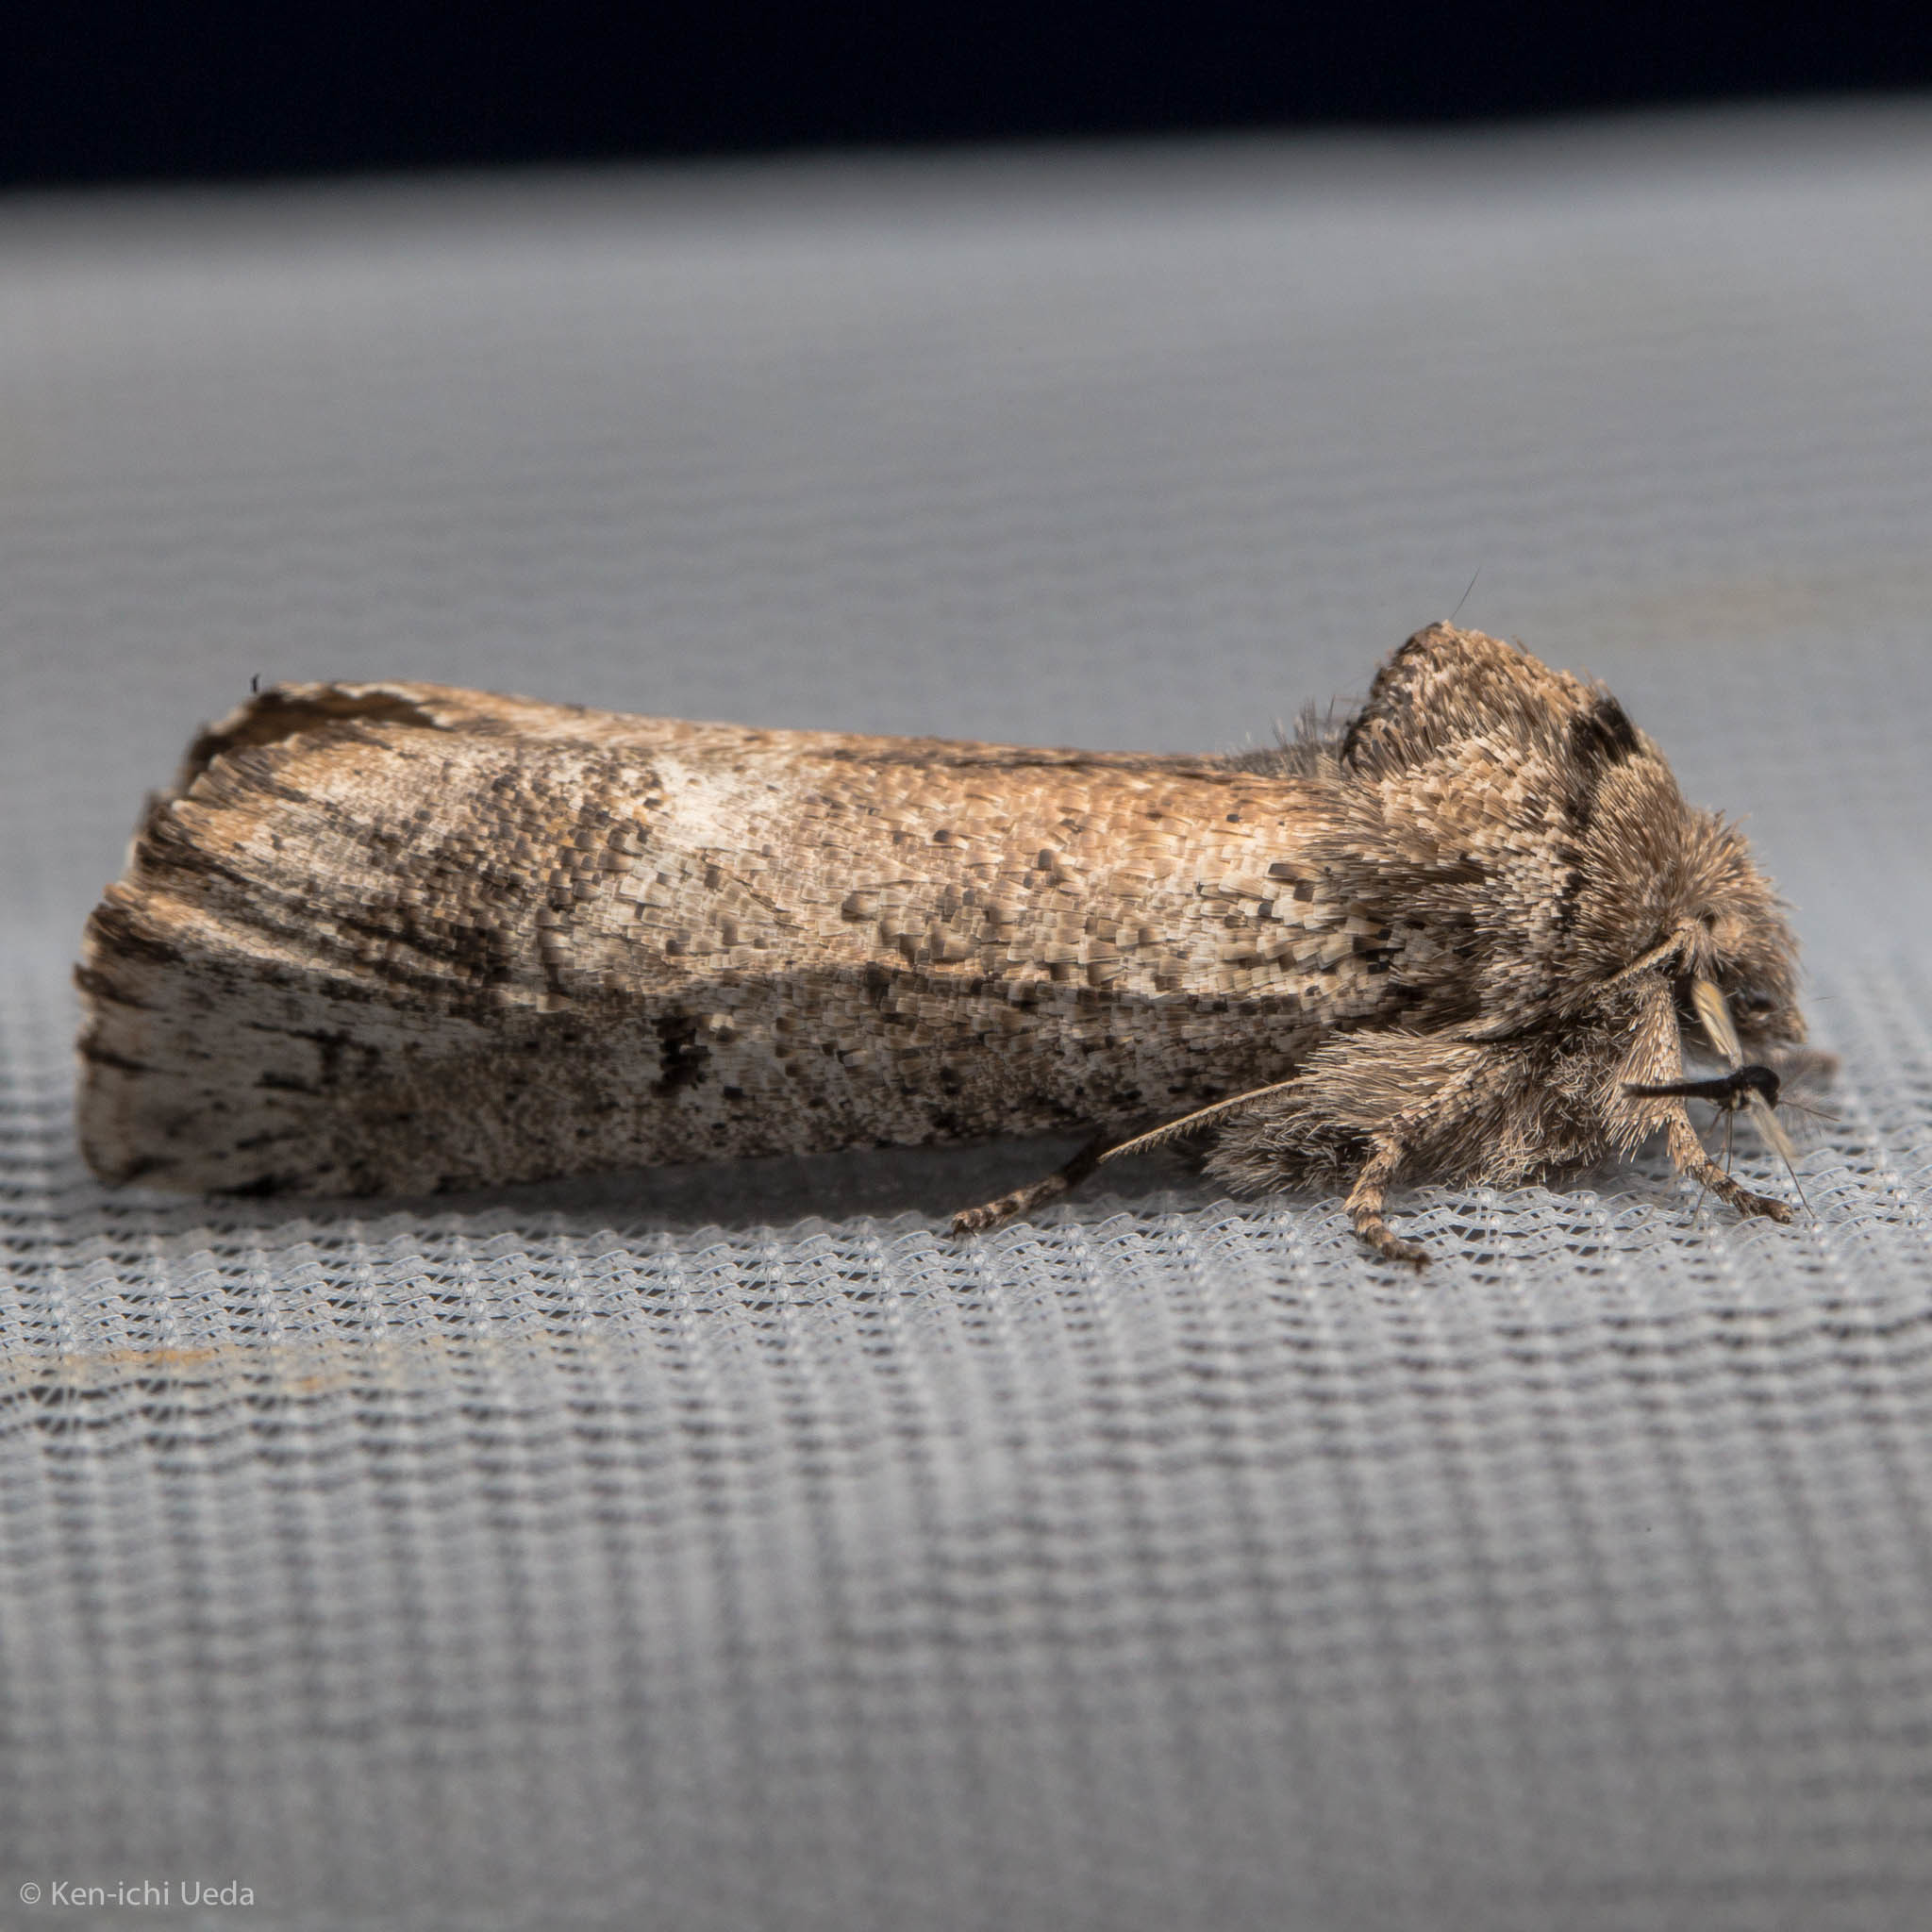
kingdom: Animalia
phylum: Arthropoda
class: Insecta
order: Lepidoptera
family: Erebidae
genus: Aon
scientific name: Aon noctuiformis
